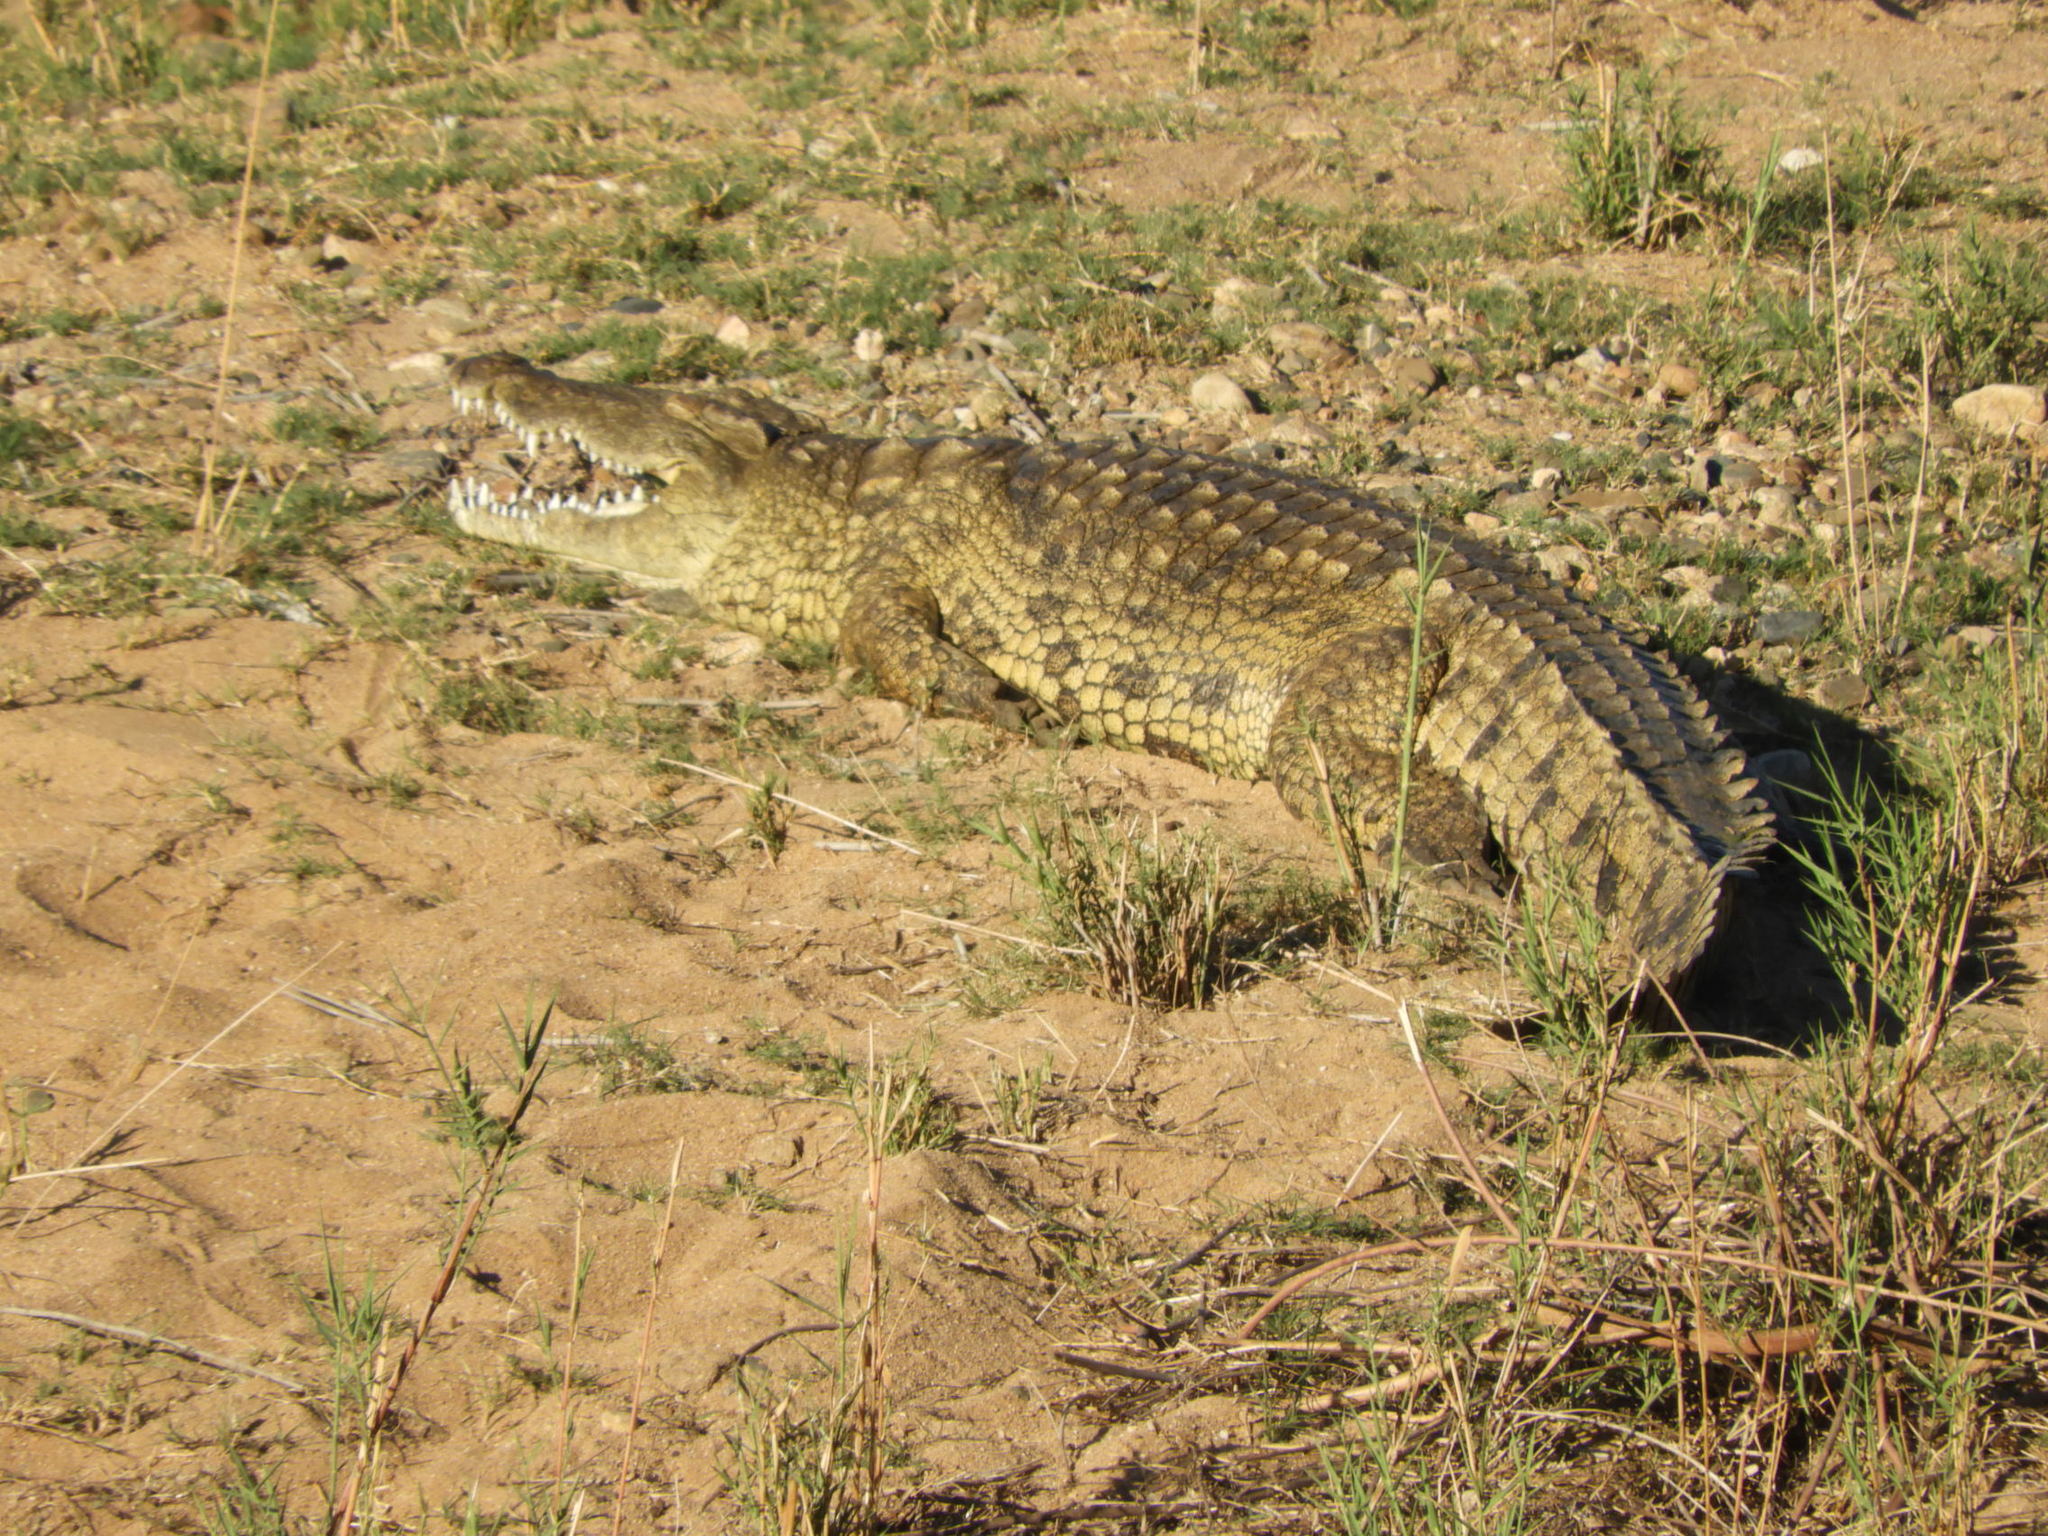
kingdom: Animalia
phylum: Chordata
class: Crocodylia
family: Crocodylidae
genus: Crocodylus
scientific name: Crocodylus niloticus
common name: Nile crocodile
